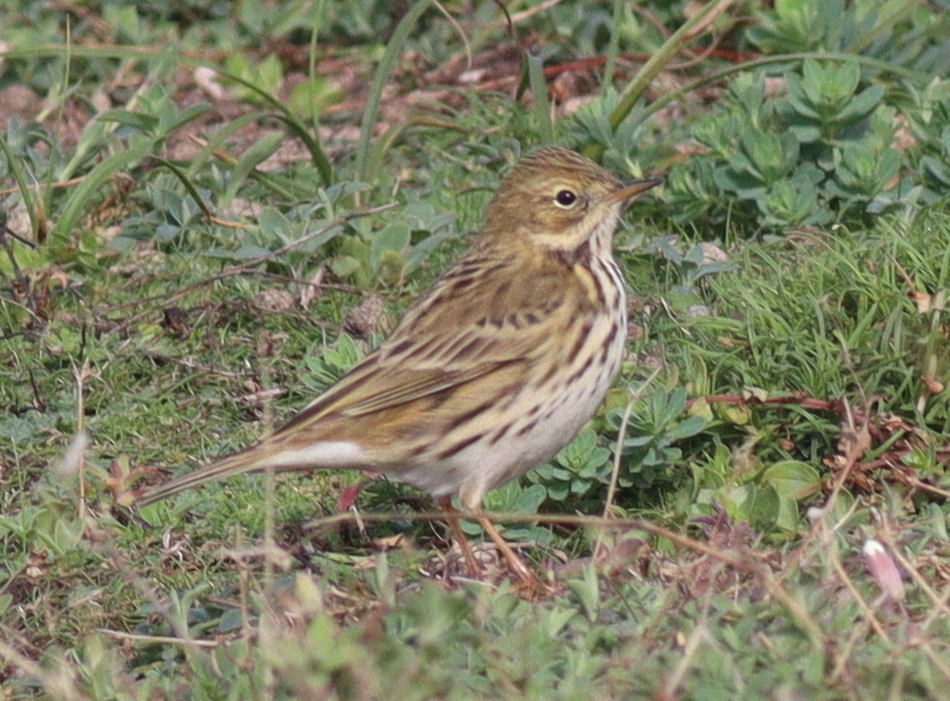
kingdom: Animalia
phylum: Chordata
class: Aves
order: Passeriformes
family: Motacillidae
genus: Anthus
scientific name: Anthus pratensis
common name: Meadow pipit
